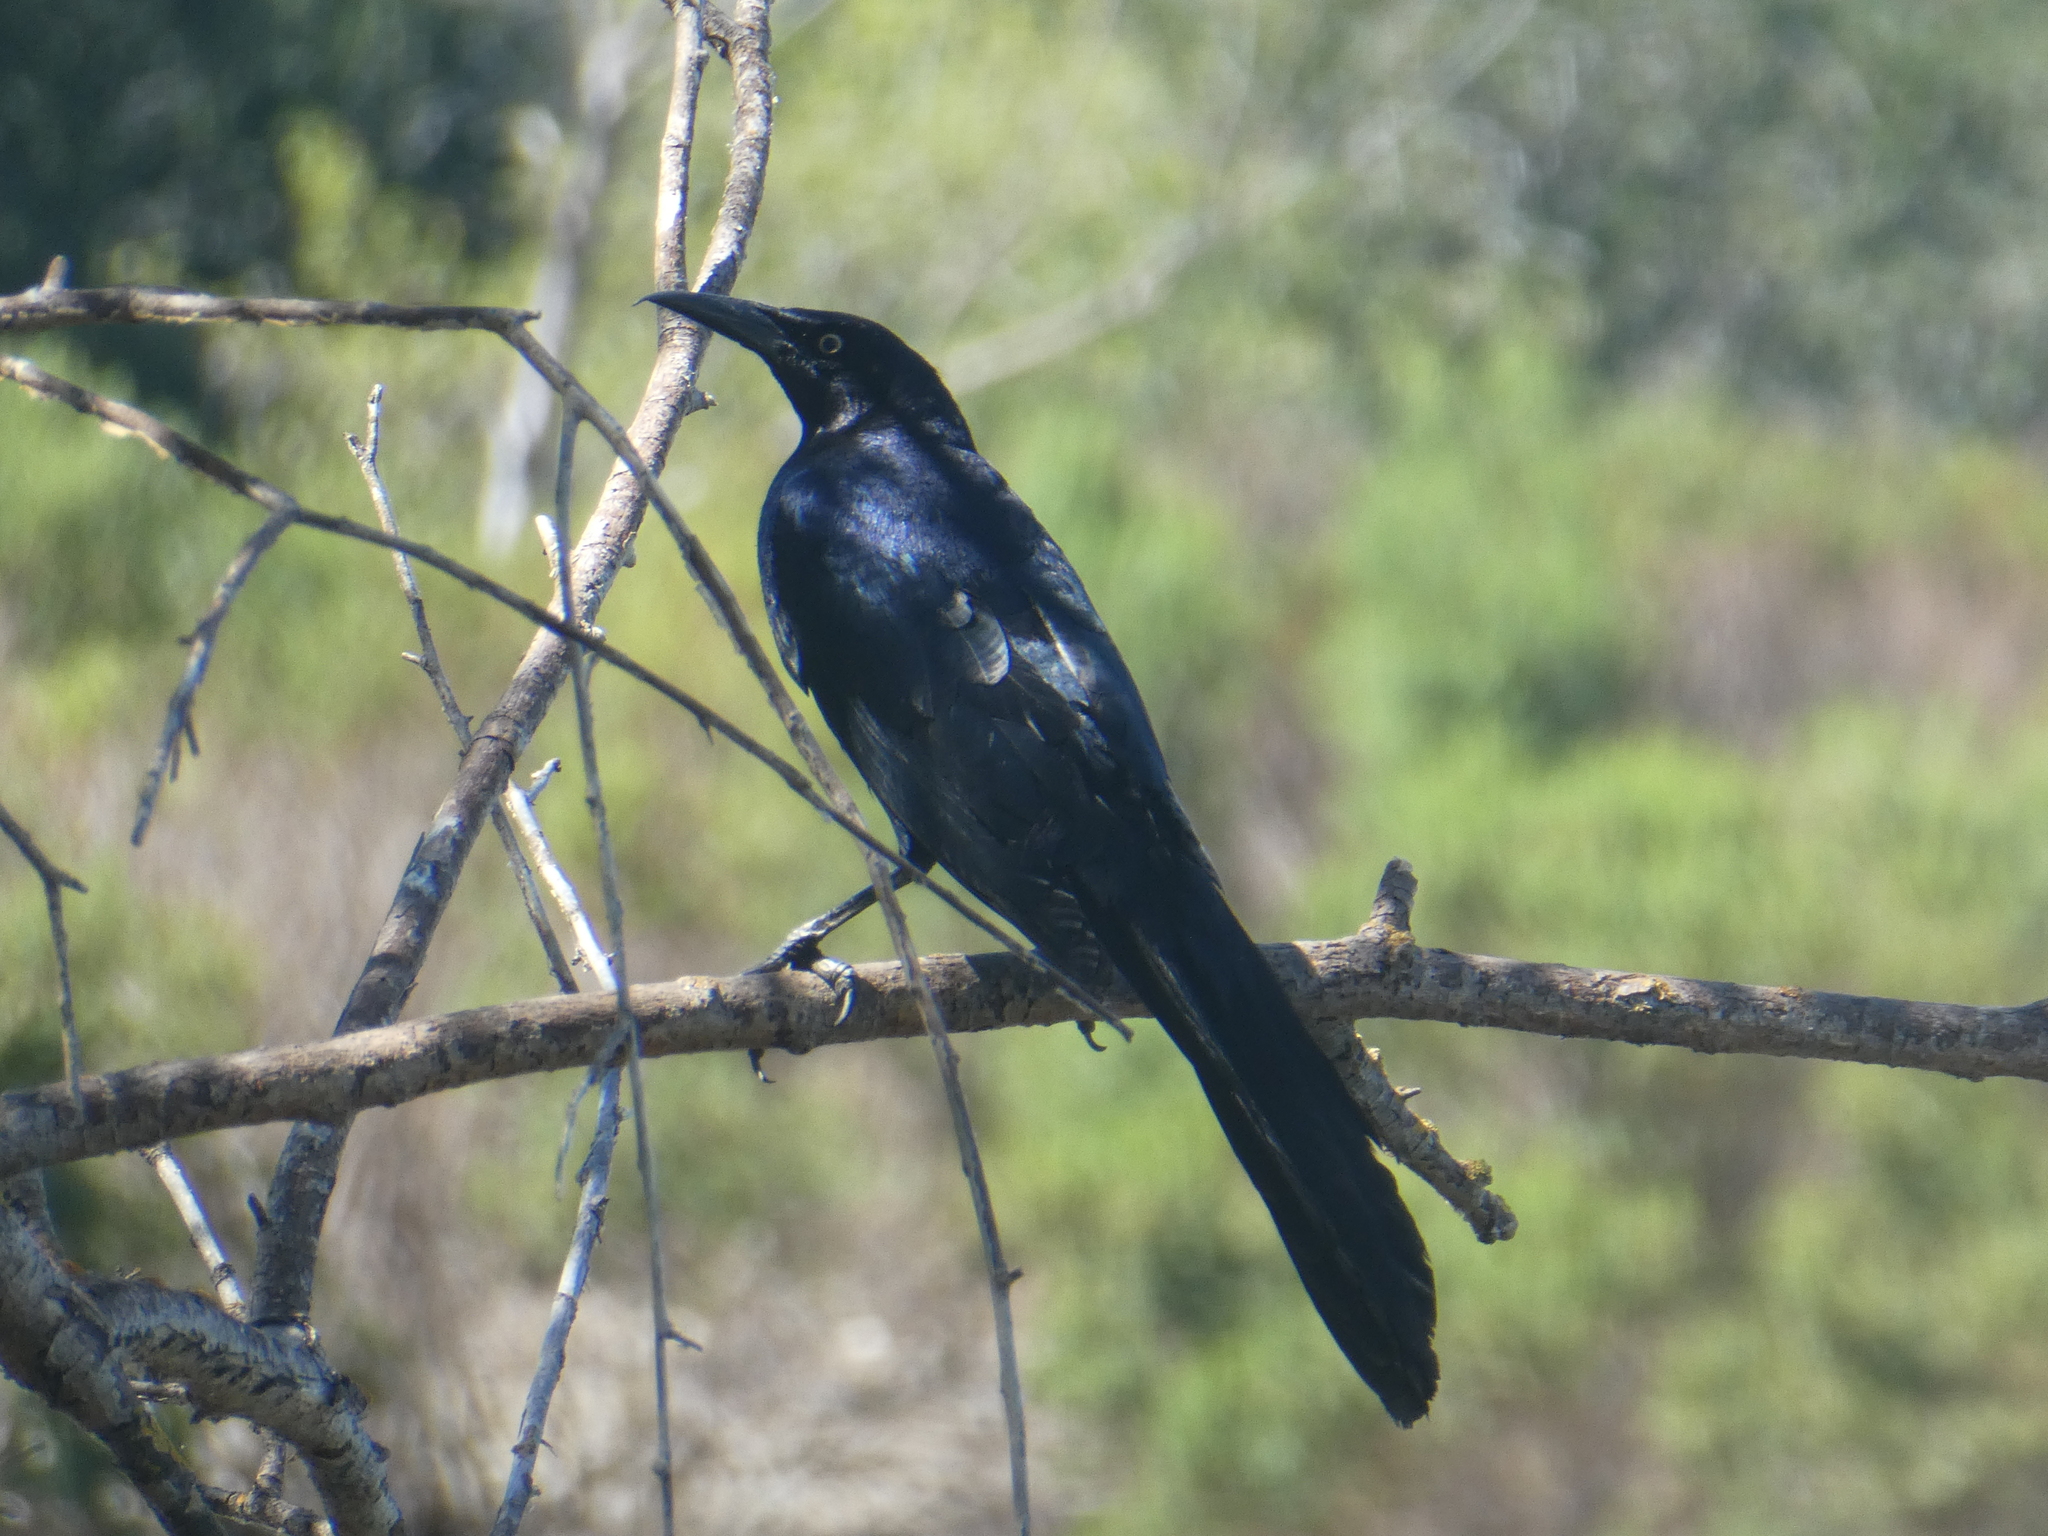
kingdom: Animalia
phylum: Chordata
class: Aves
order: Passeriformes
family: Icteridae
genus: Quiscalus
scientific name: Quiscalus mexicanus
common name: Great-tailed grackle
